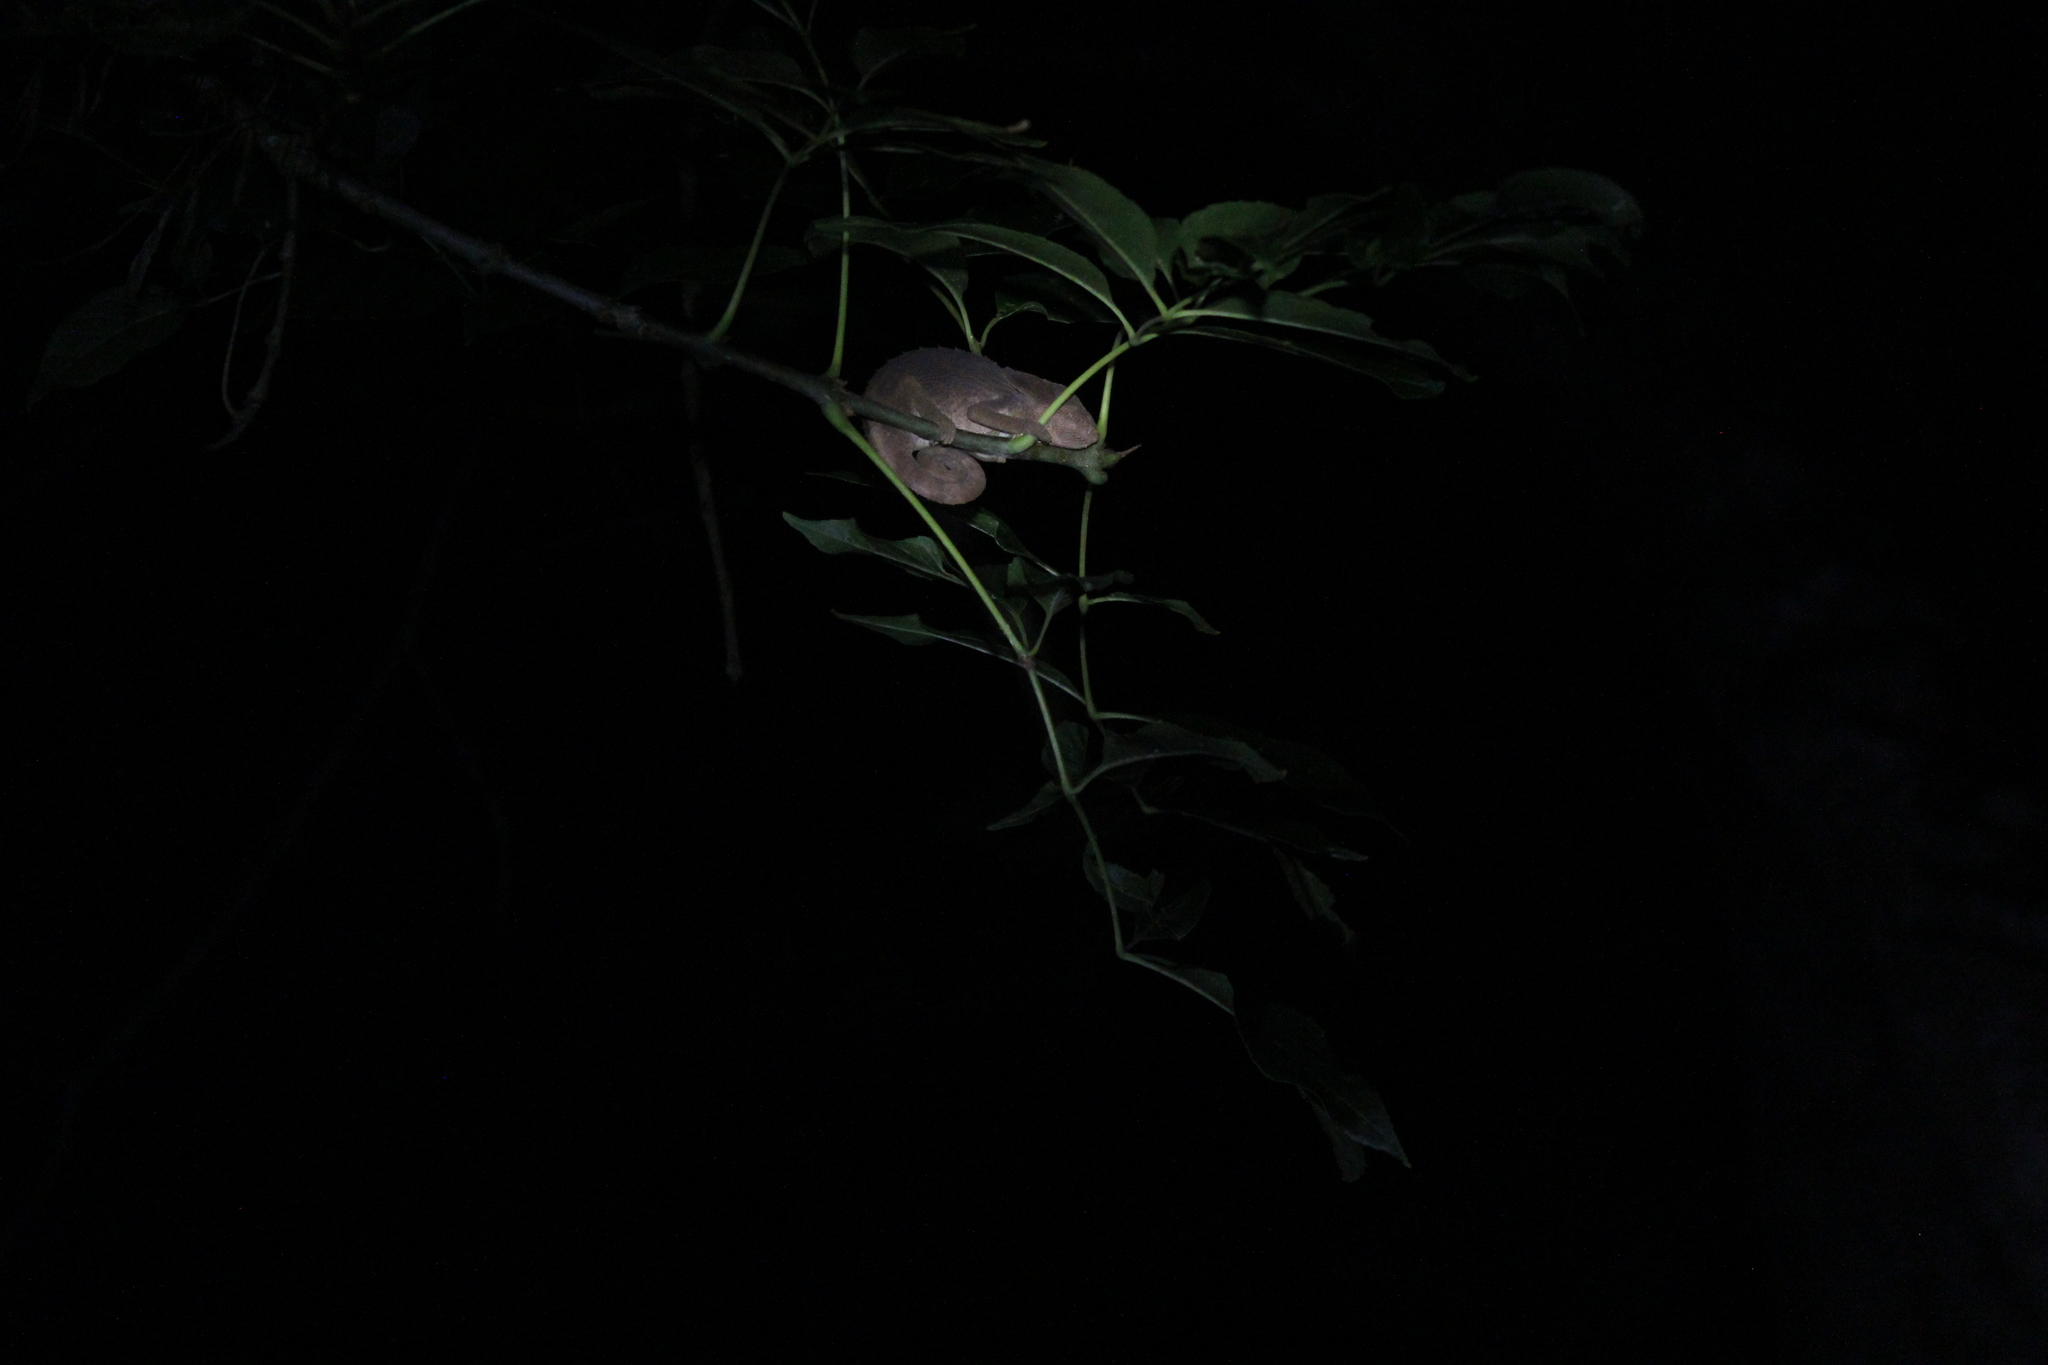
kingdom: Animalia
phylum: Chordata
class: Squamata
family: Chamaeleonidae
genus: Calumma
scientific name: Calumma brevicorne
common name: Short-horned chameleon
